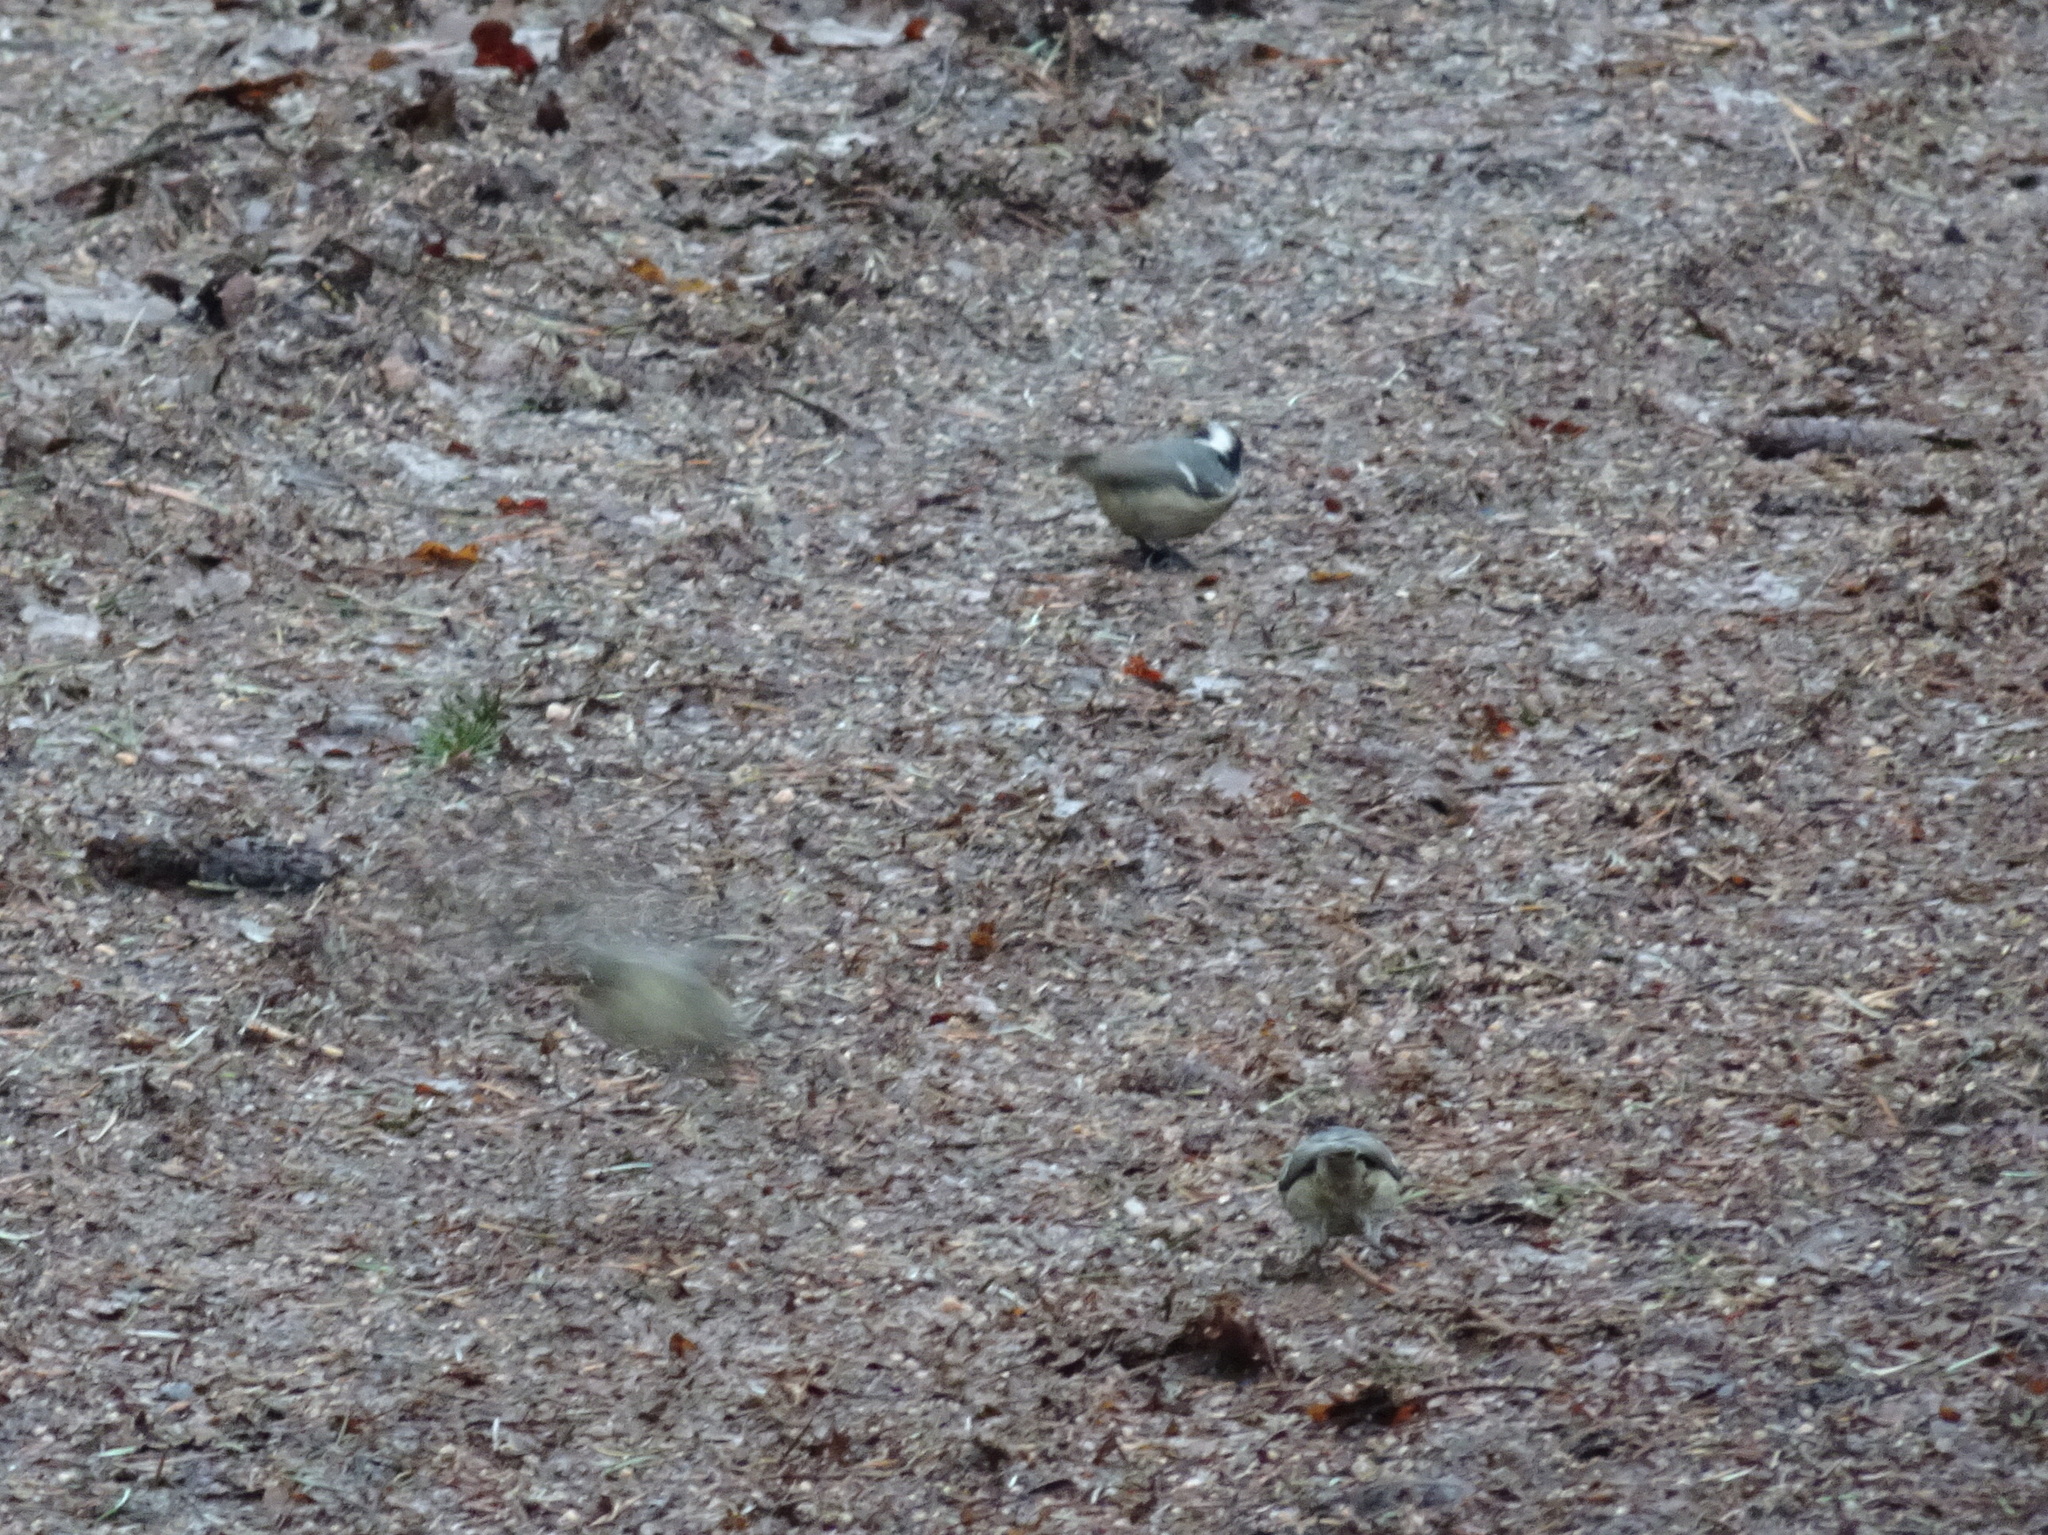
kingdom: Animalia
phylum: Chordata
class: Aves
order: Passeriformes
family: Paridae
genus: Periparus
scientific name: Periparus ater
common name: Coal tit
